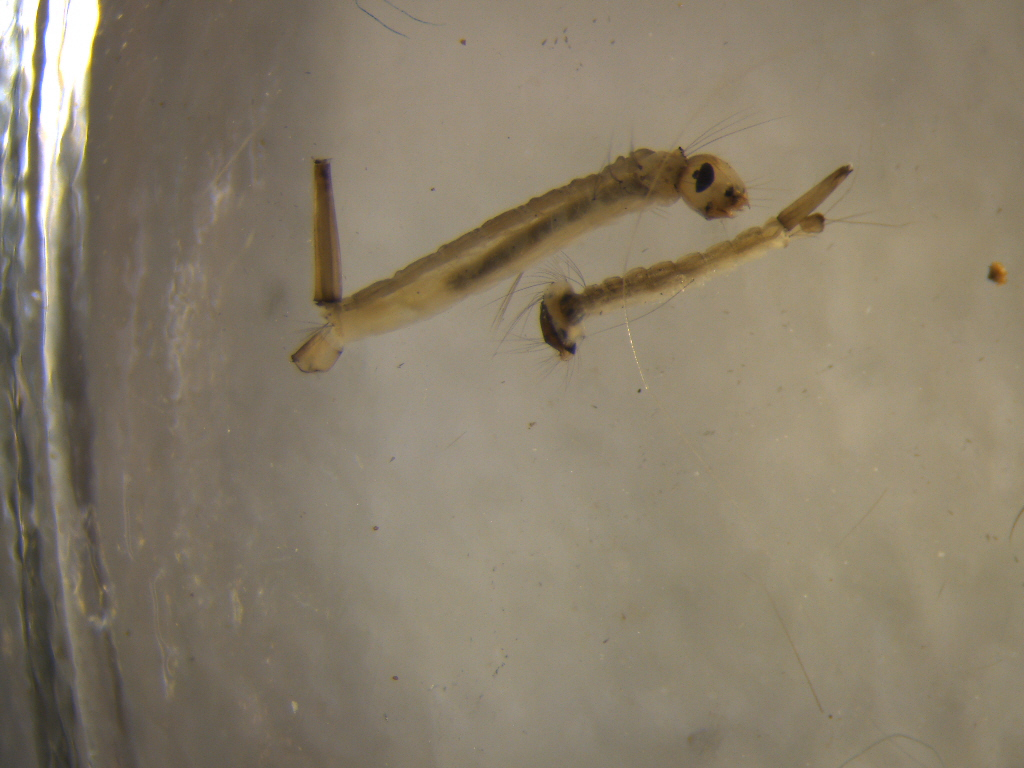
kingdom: Animalia
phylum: Arthropoda
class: Insecta
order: Diptera
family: Culicidae
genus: Culex
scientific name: Culex pervigilans
